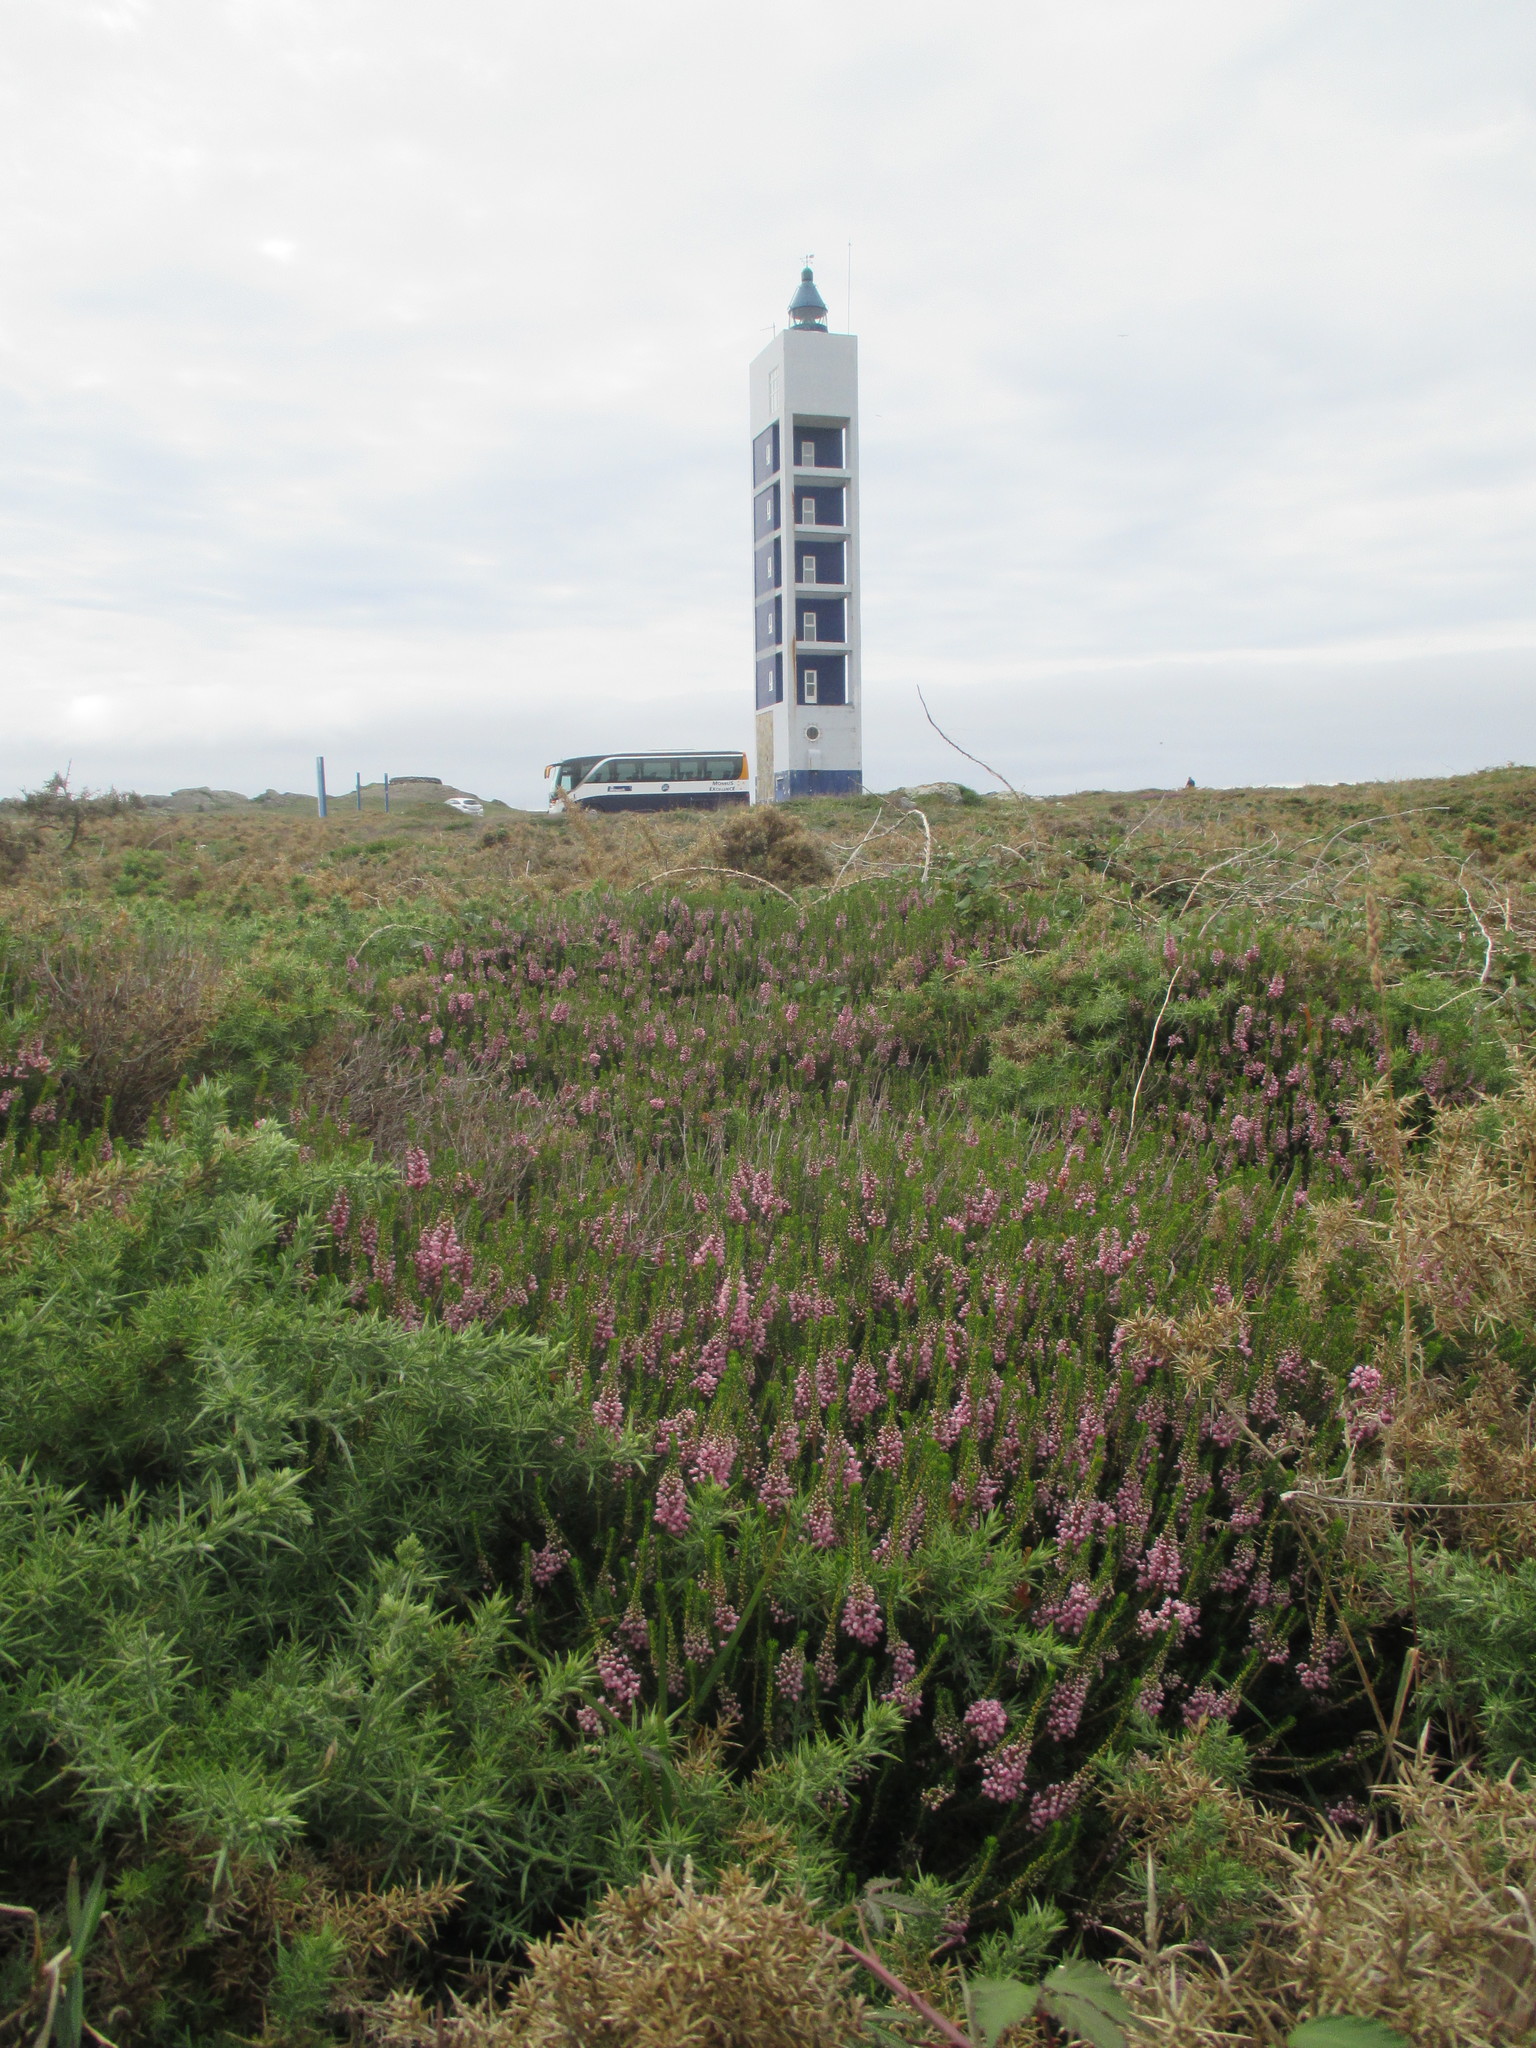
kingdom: Plantae
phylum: Tracheophyta
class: Magnoliopsida
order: Ericales
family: Ericaceae
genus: Erica
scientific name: Erica vagans
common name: Cornish heath
